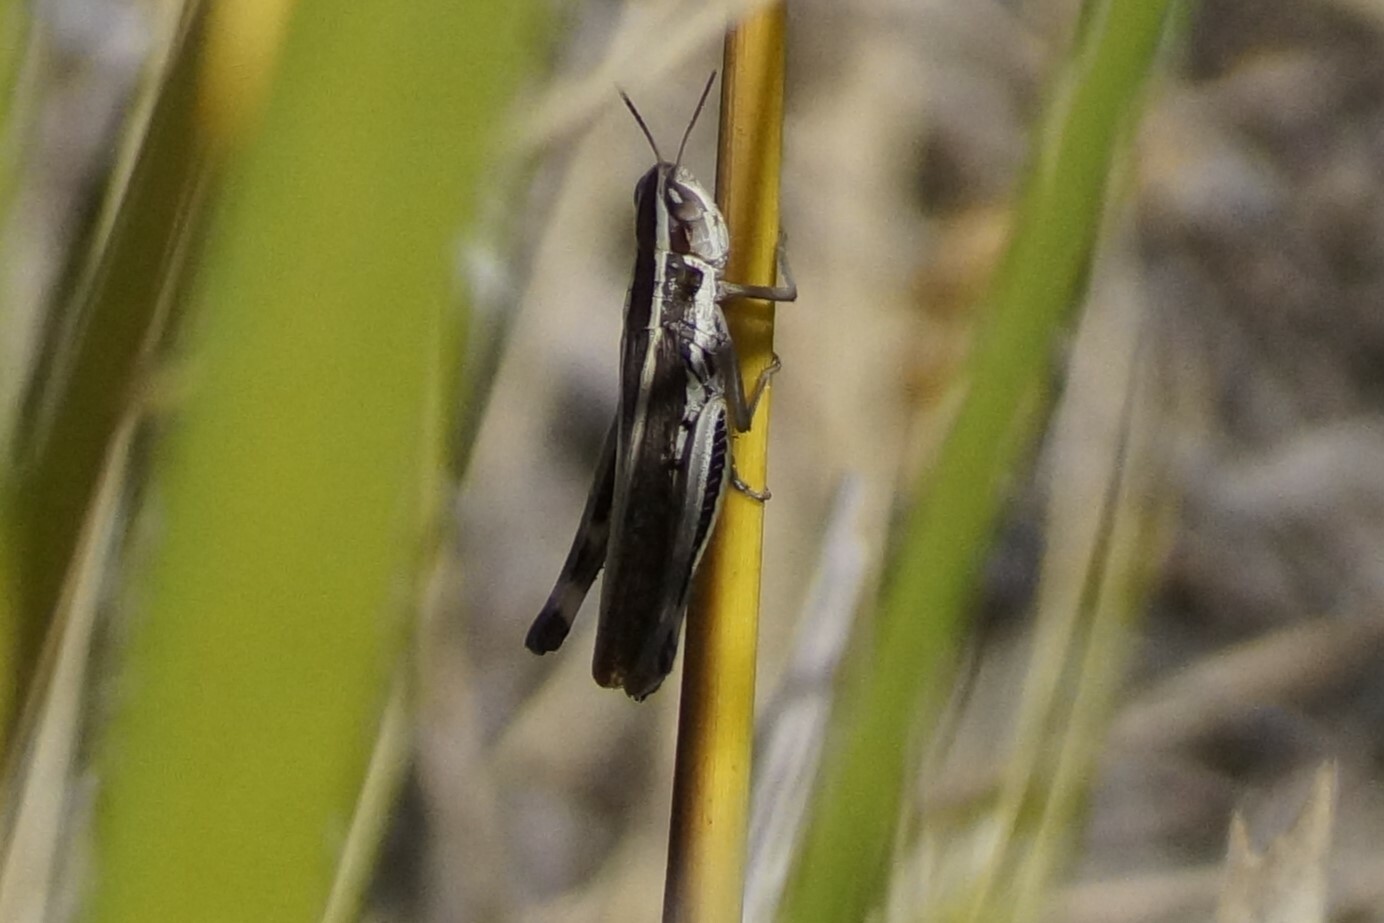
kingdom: Animalia
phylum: Arthropoda
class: Insecta
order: Orthoptera
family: Acrididae
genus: Macrotona
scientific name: Macrotona australis
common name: Common macrotona
